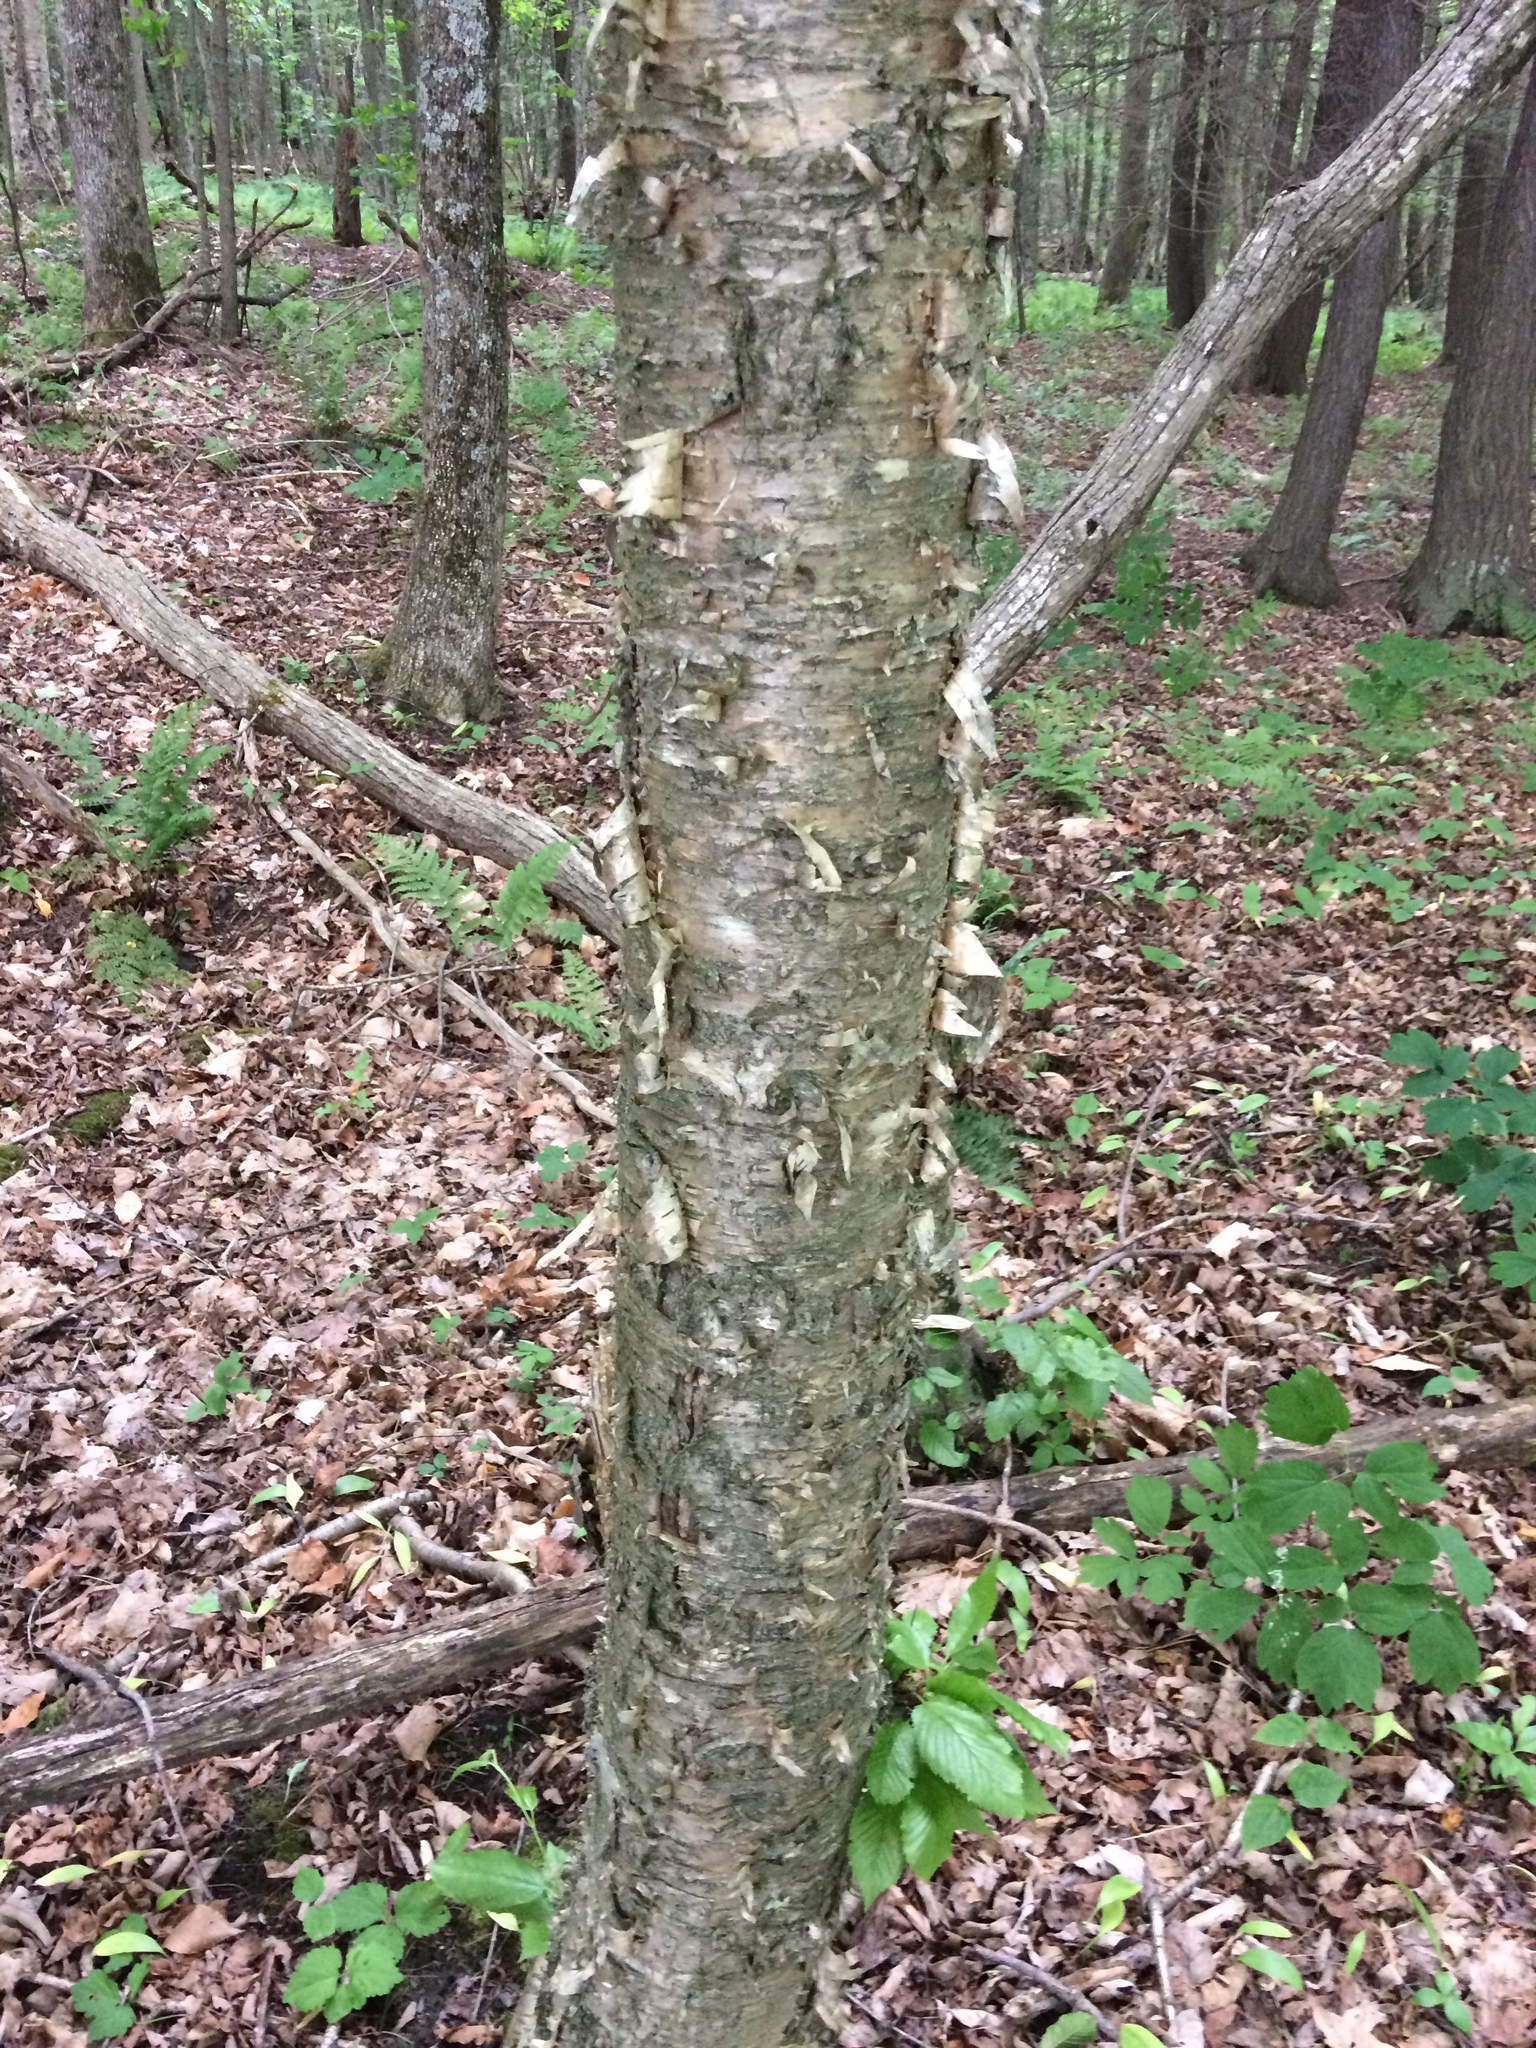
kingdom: Plantae
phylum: Tracheophyta
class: Magnoliopsida
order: Fagales
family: Betulaceae
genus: Betula
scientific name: Betula alleghaniensis
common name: Yellow birch
